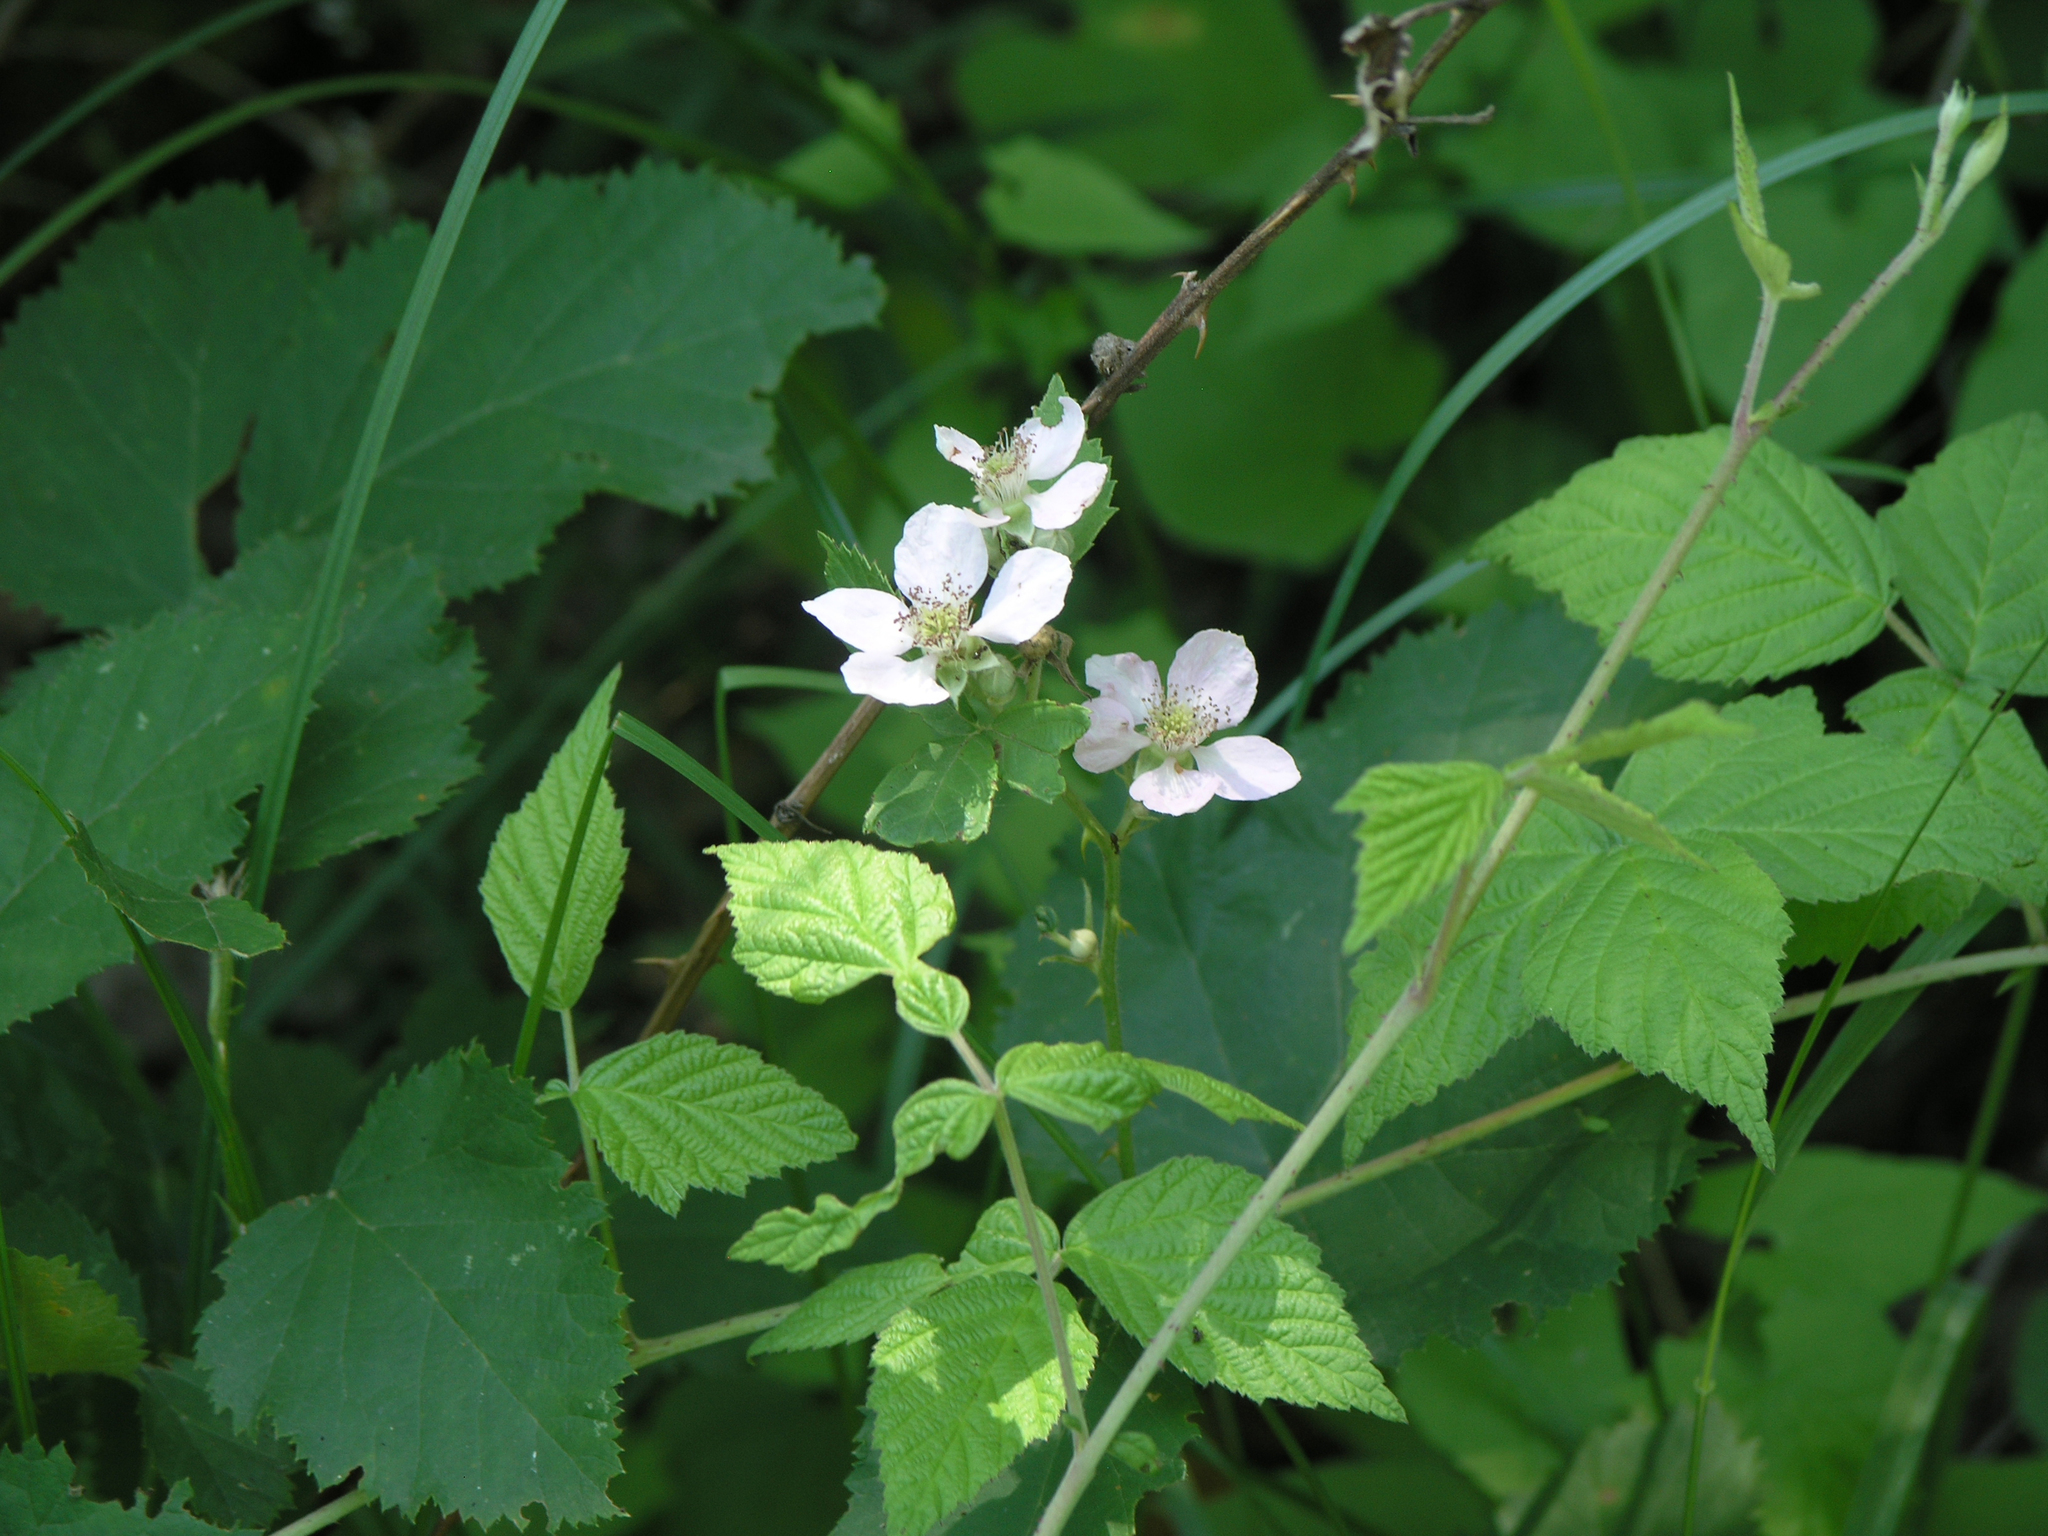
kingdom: Plantae
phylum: Tracheophyta
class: Magnoliopsida
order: Rosales
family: Rosaceae
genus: Rubus
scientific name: Rubus caesius
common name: Dewberry
